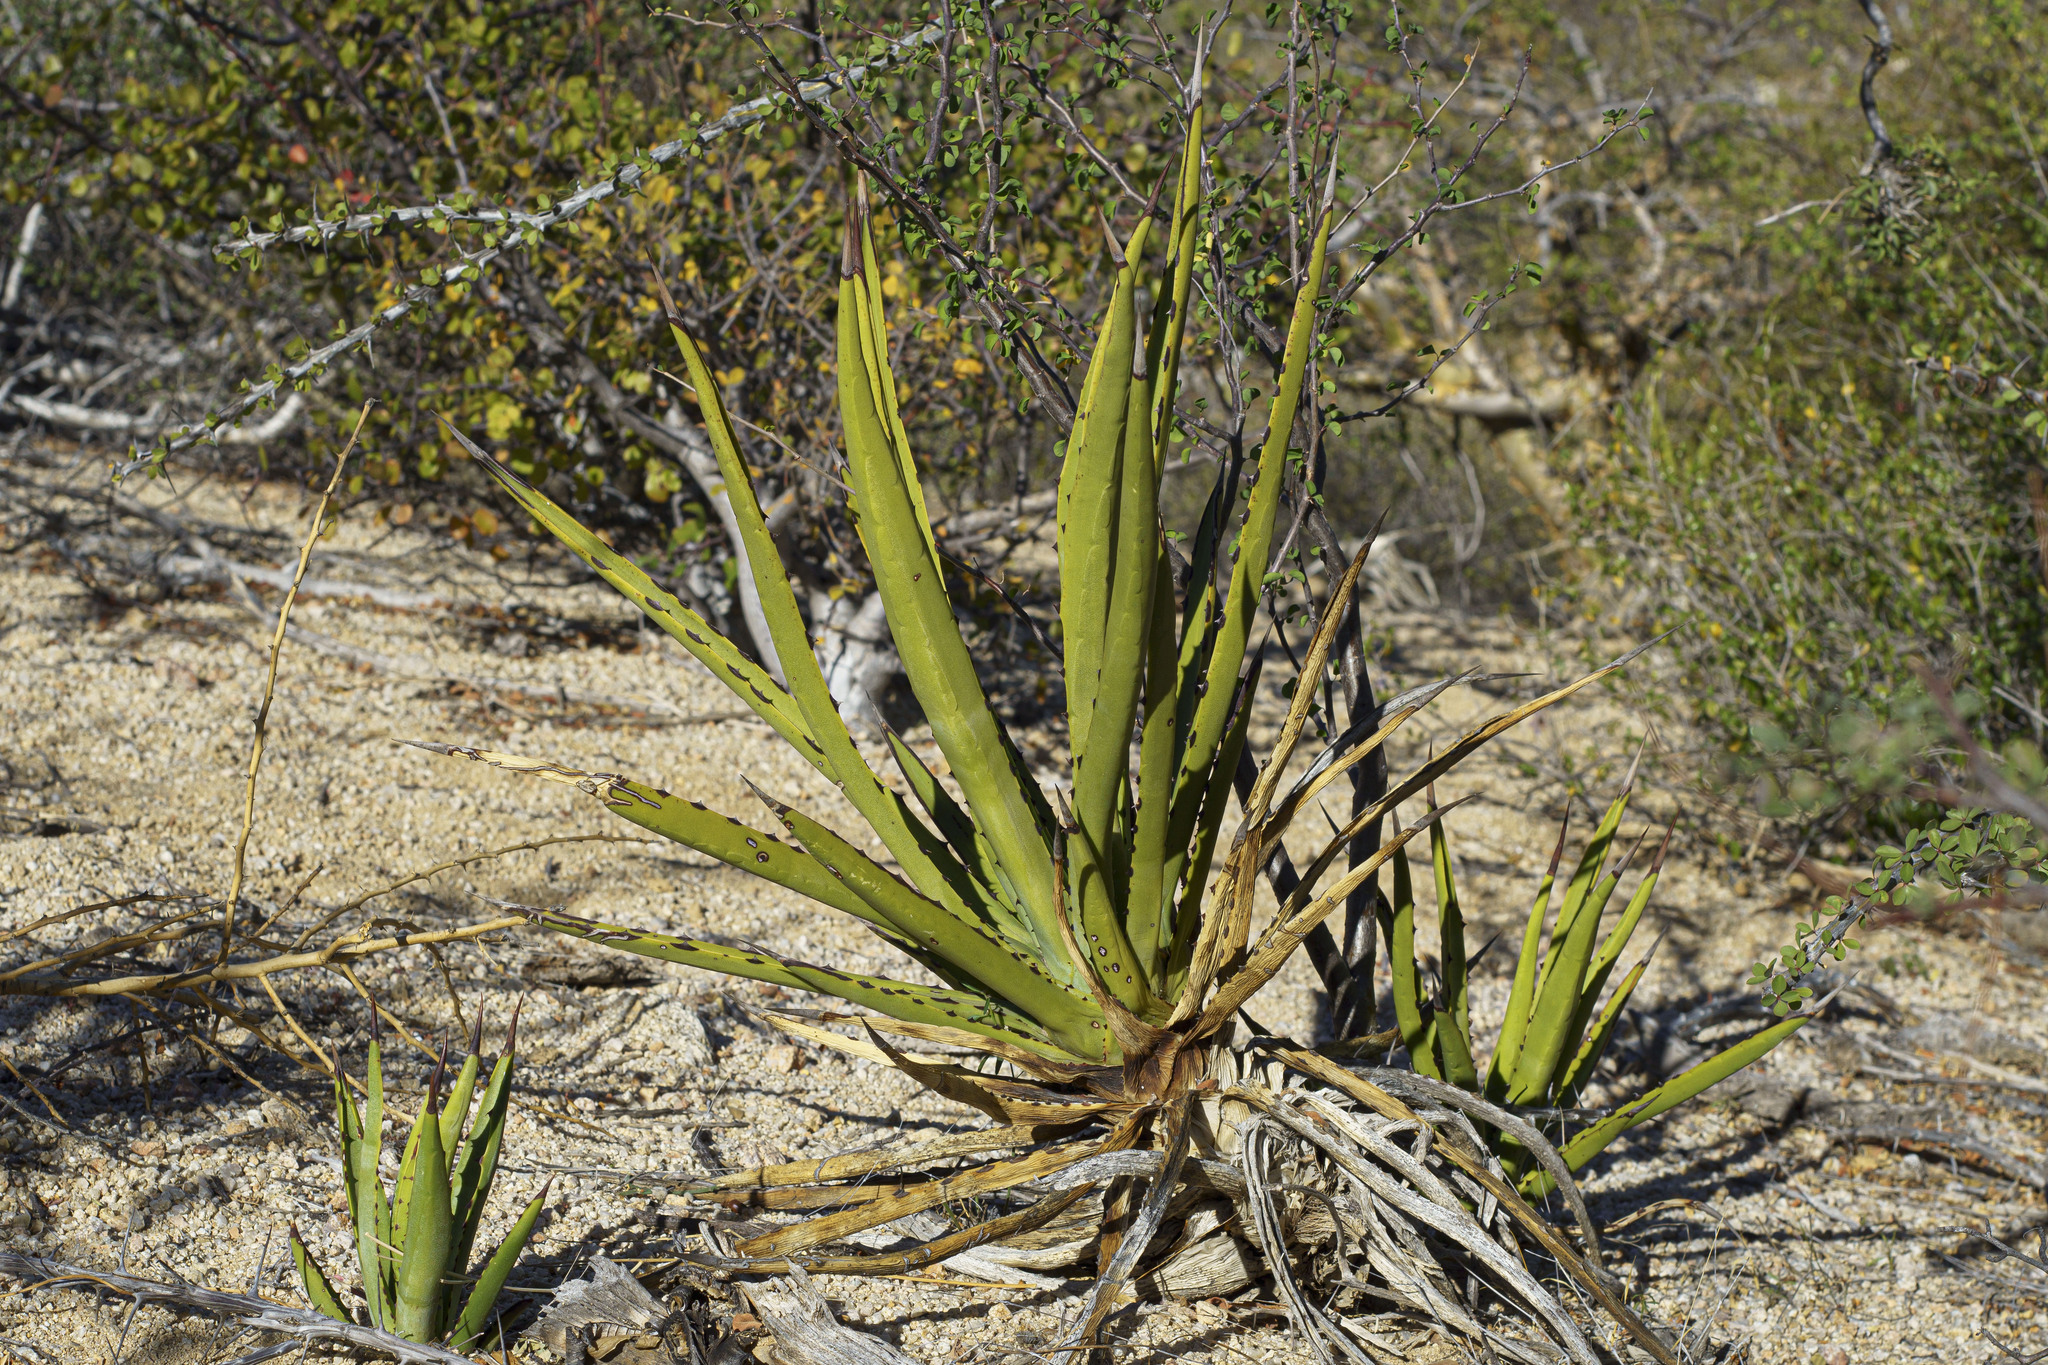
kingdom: Plantae
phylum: Tracheophyta
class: Liliopsida
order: Asparagales
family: Asparagaceae
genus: Agave
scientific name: Agave datylio
